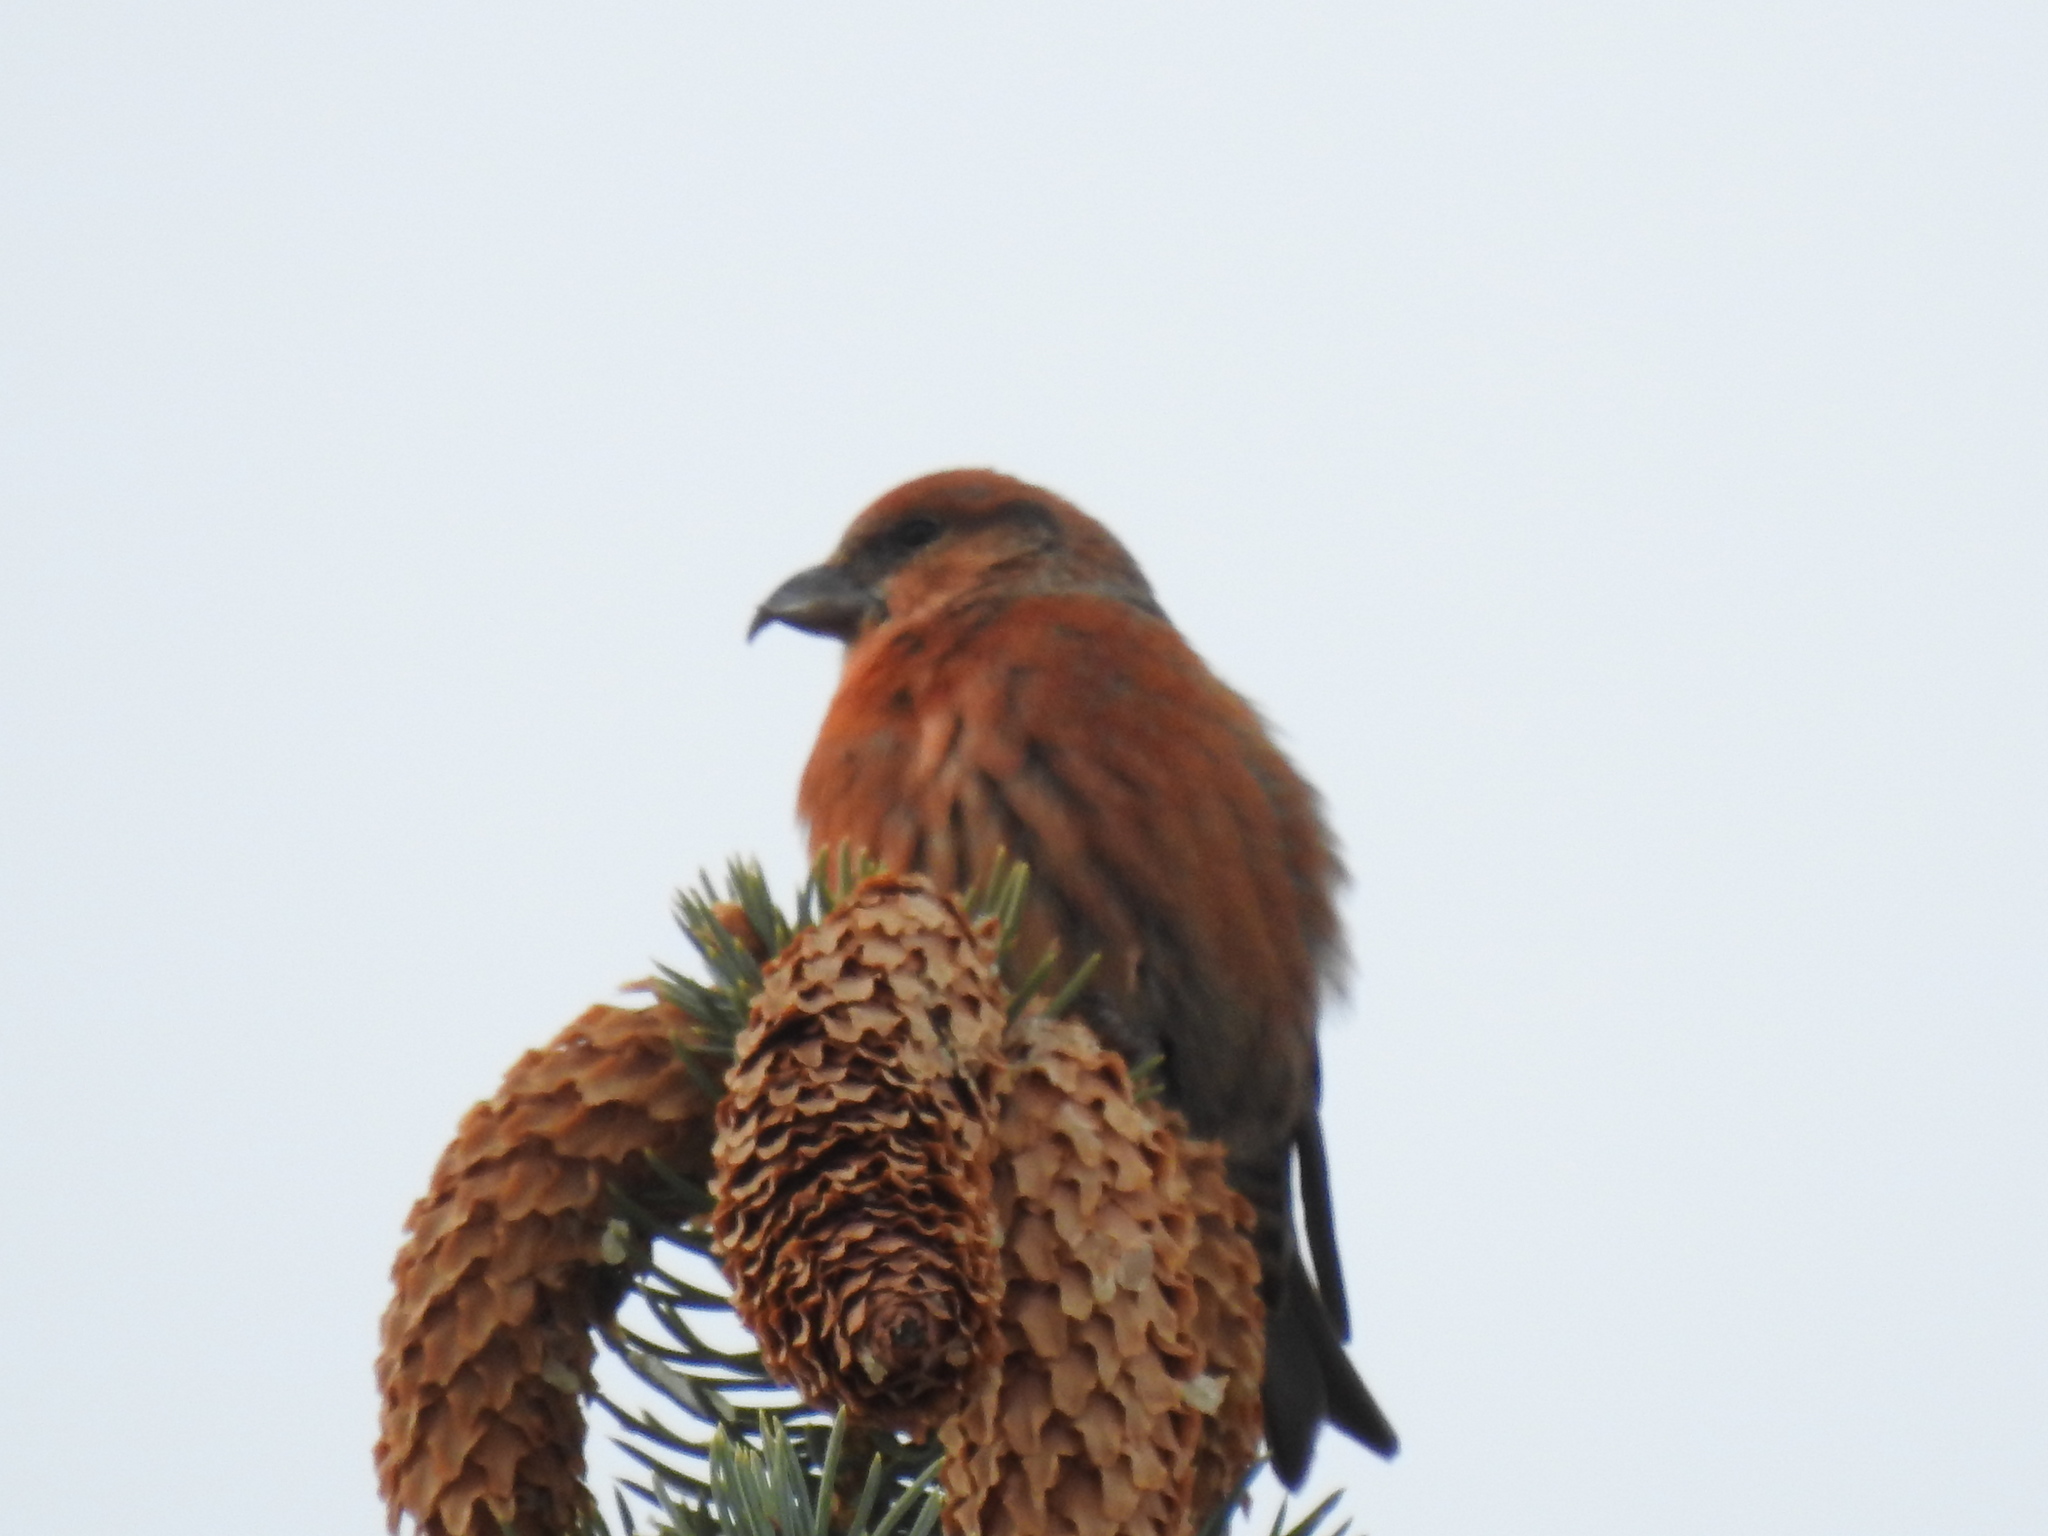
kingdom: Animalia
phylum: Chordata
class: Aves
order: Passeriformes
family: Fringillidae
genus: Loxia
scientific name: Loxia curvirostra
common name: Red crossbill
